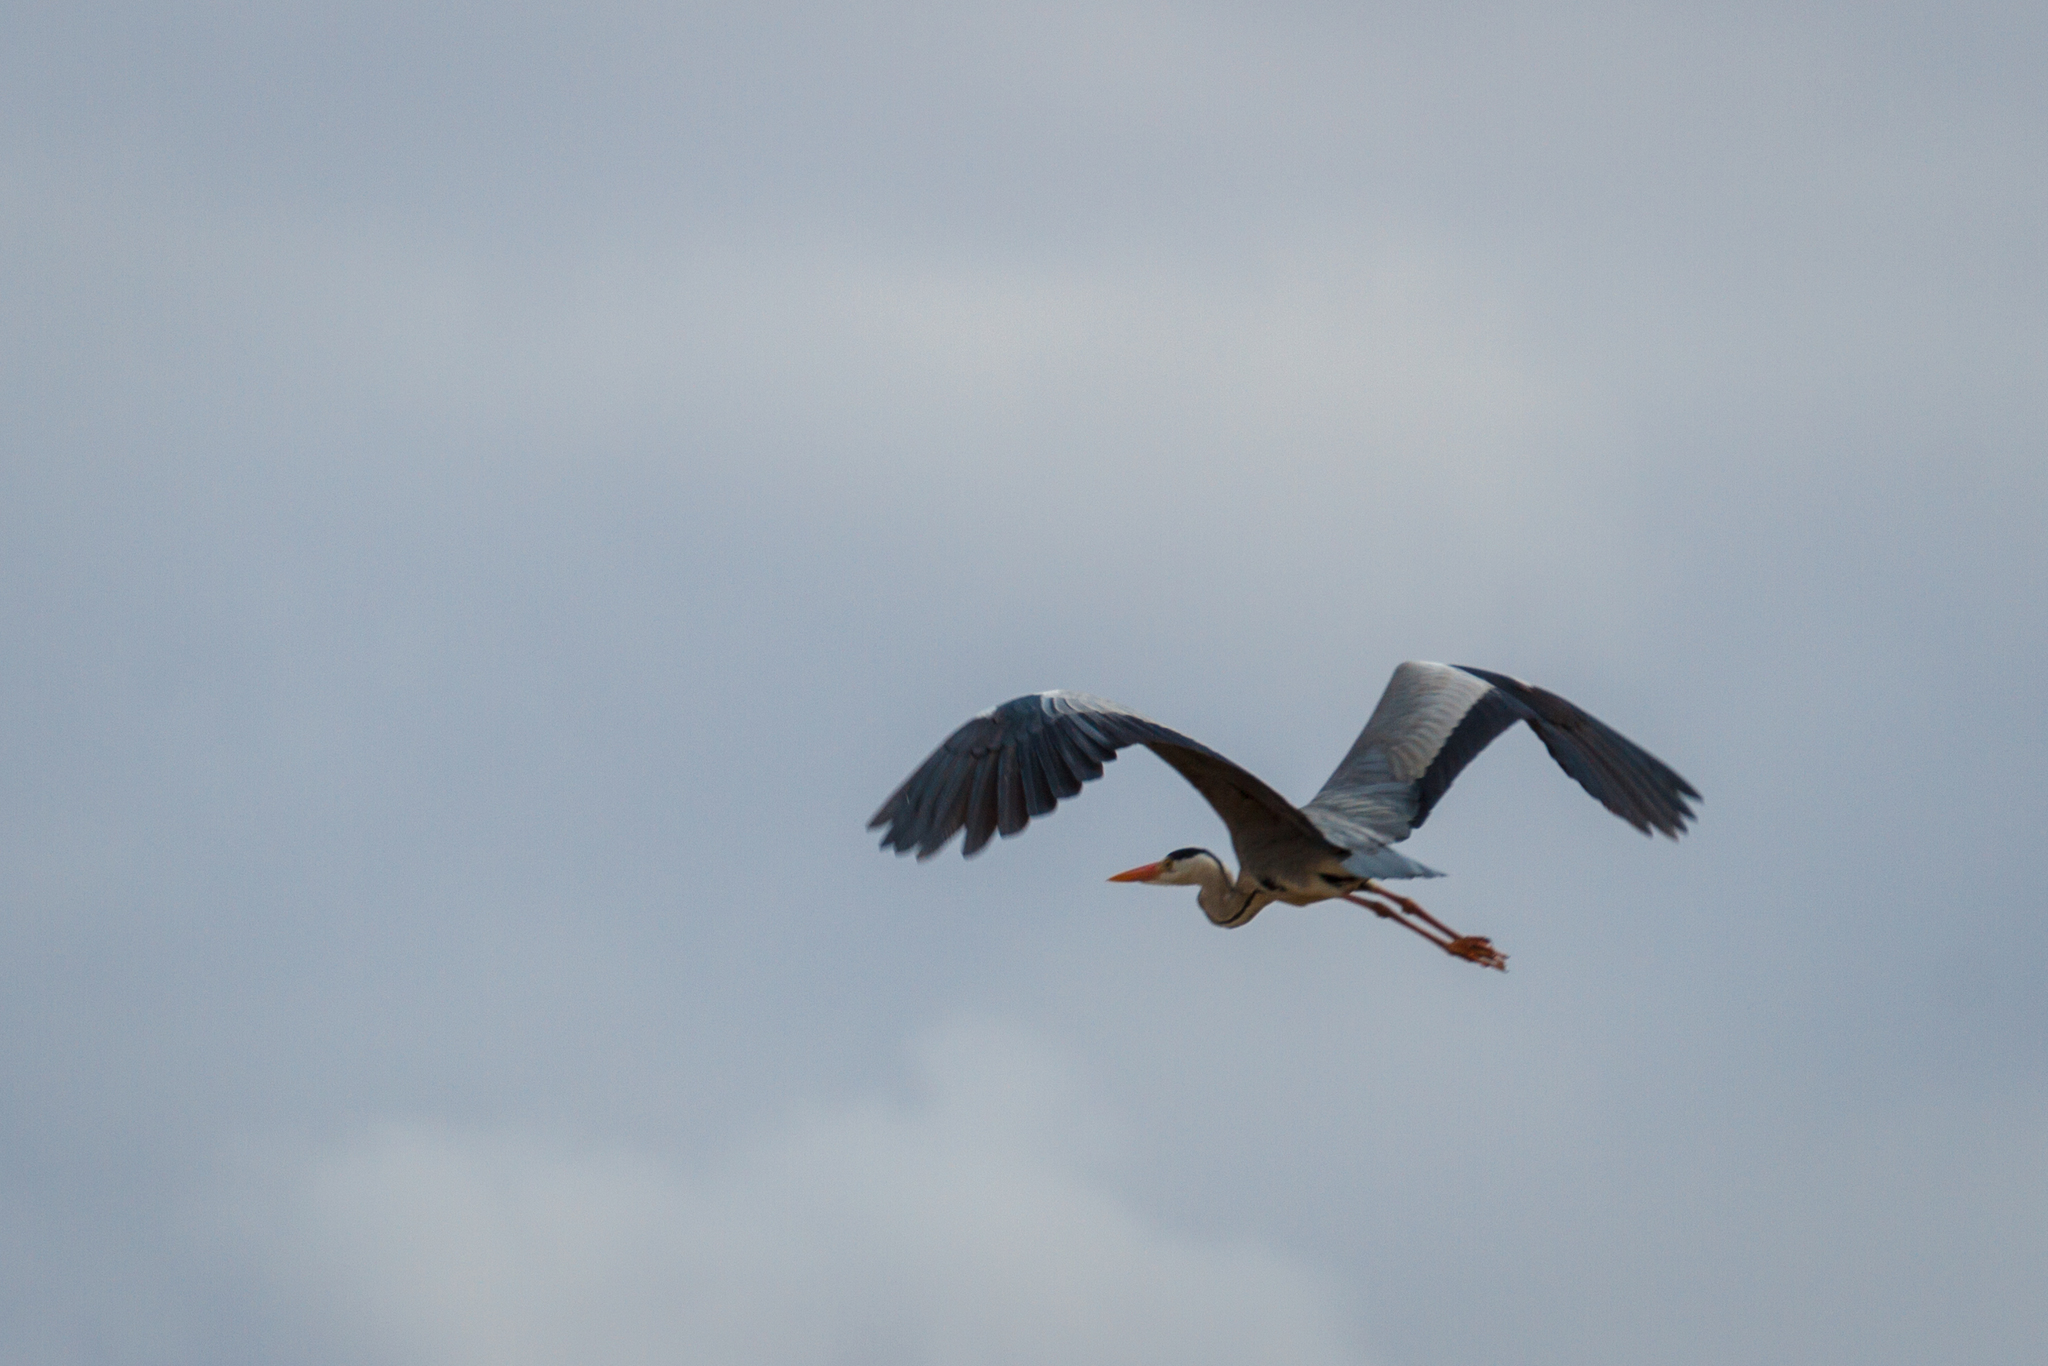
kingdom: Animalia
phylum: Chordata
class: Aves
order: Pelecaniformes
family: Ardeidae
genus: Ardea
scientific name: Ardea cinerea
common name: Grey heron
